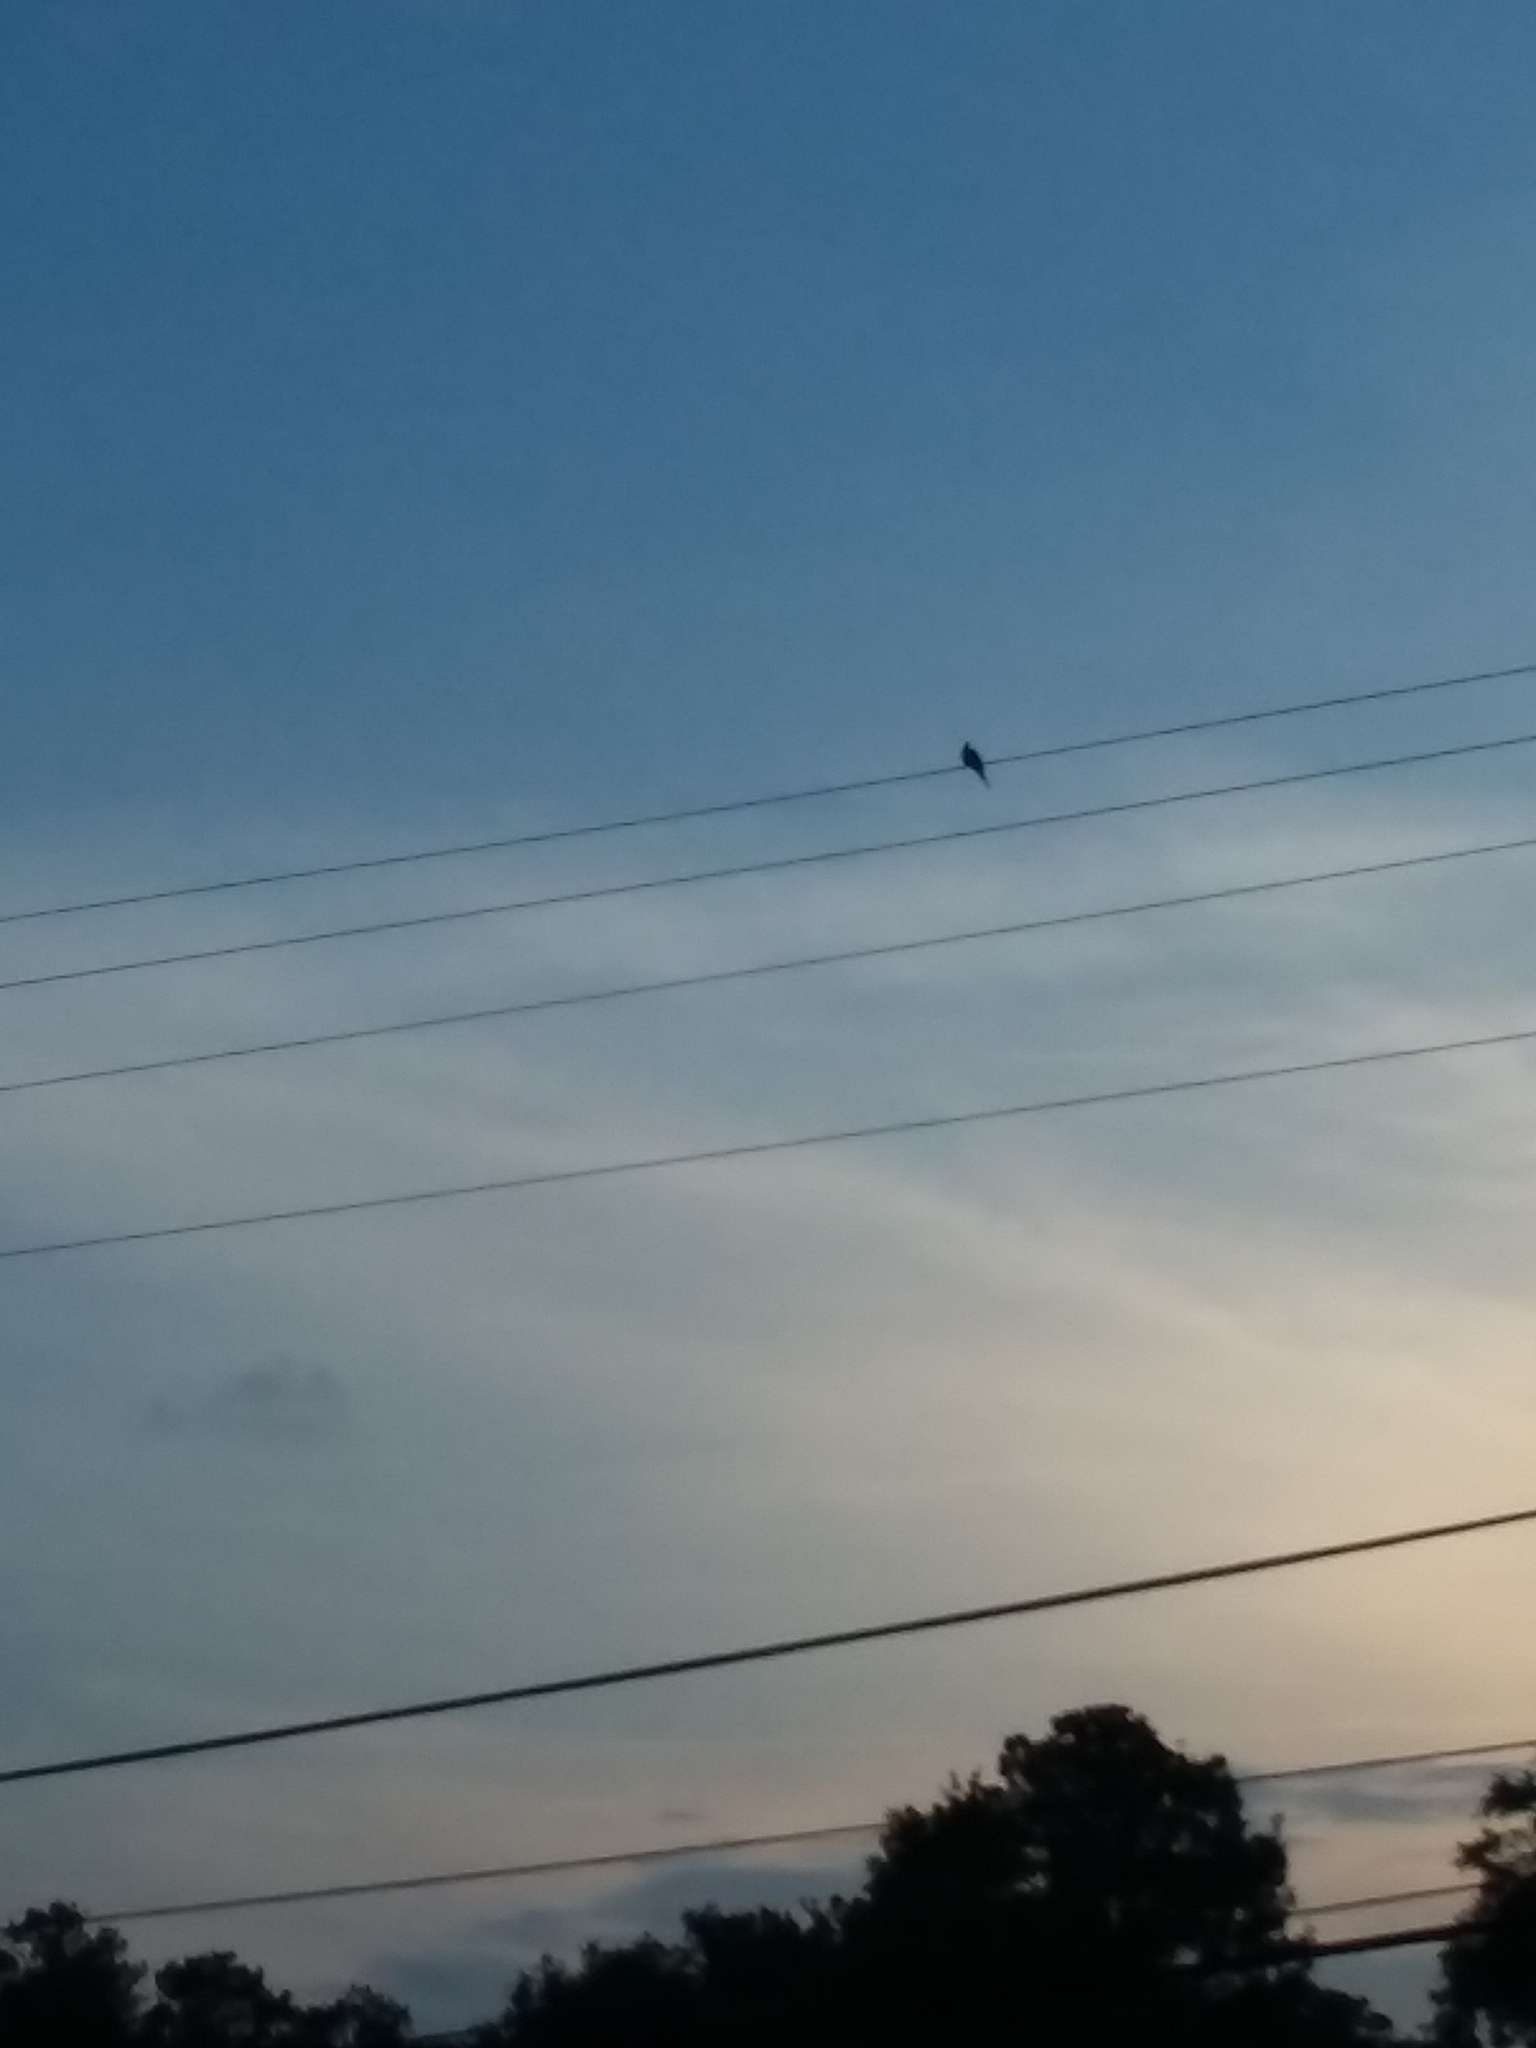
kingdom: Animalia
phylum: Chordata
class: Aves
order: Columbiformes
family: Columbidae
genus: Zenaida
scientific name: Zenaida macroura
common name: Mourning dove
